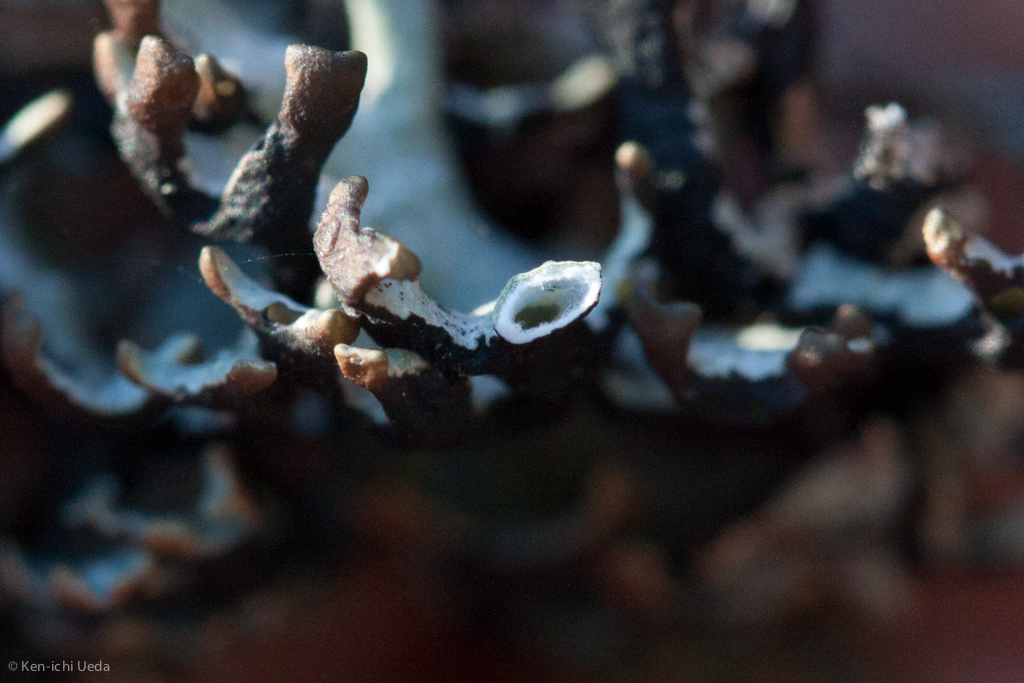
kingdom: Fungi
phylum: Ascomycota
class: Lecanoromycetes
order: Lecanorales
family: Parmeliaceae
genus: Hypogymnia
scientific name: Hypogymnia imshaugii
